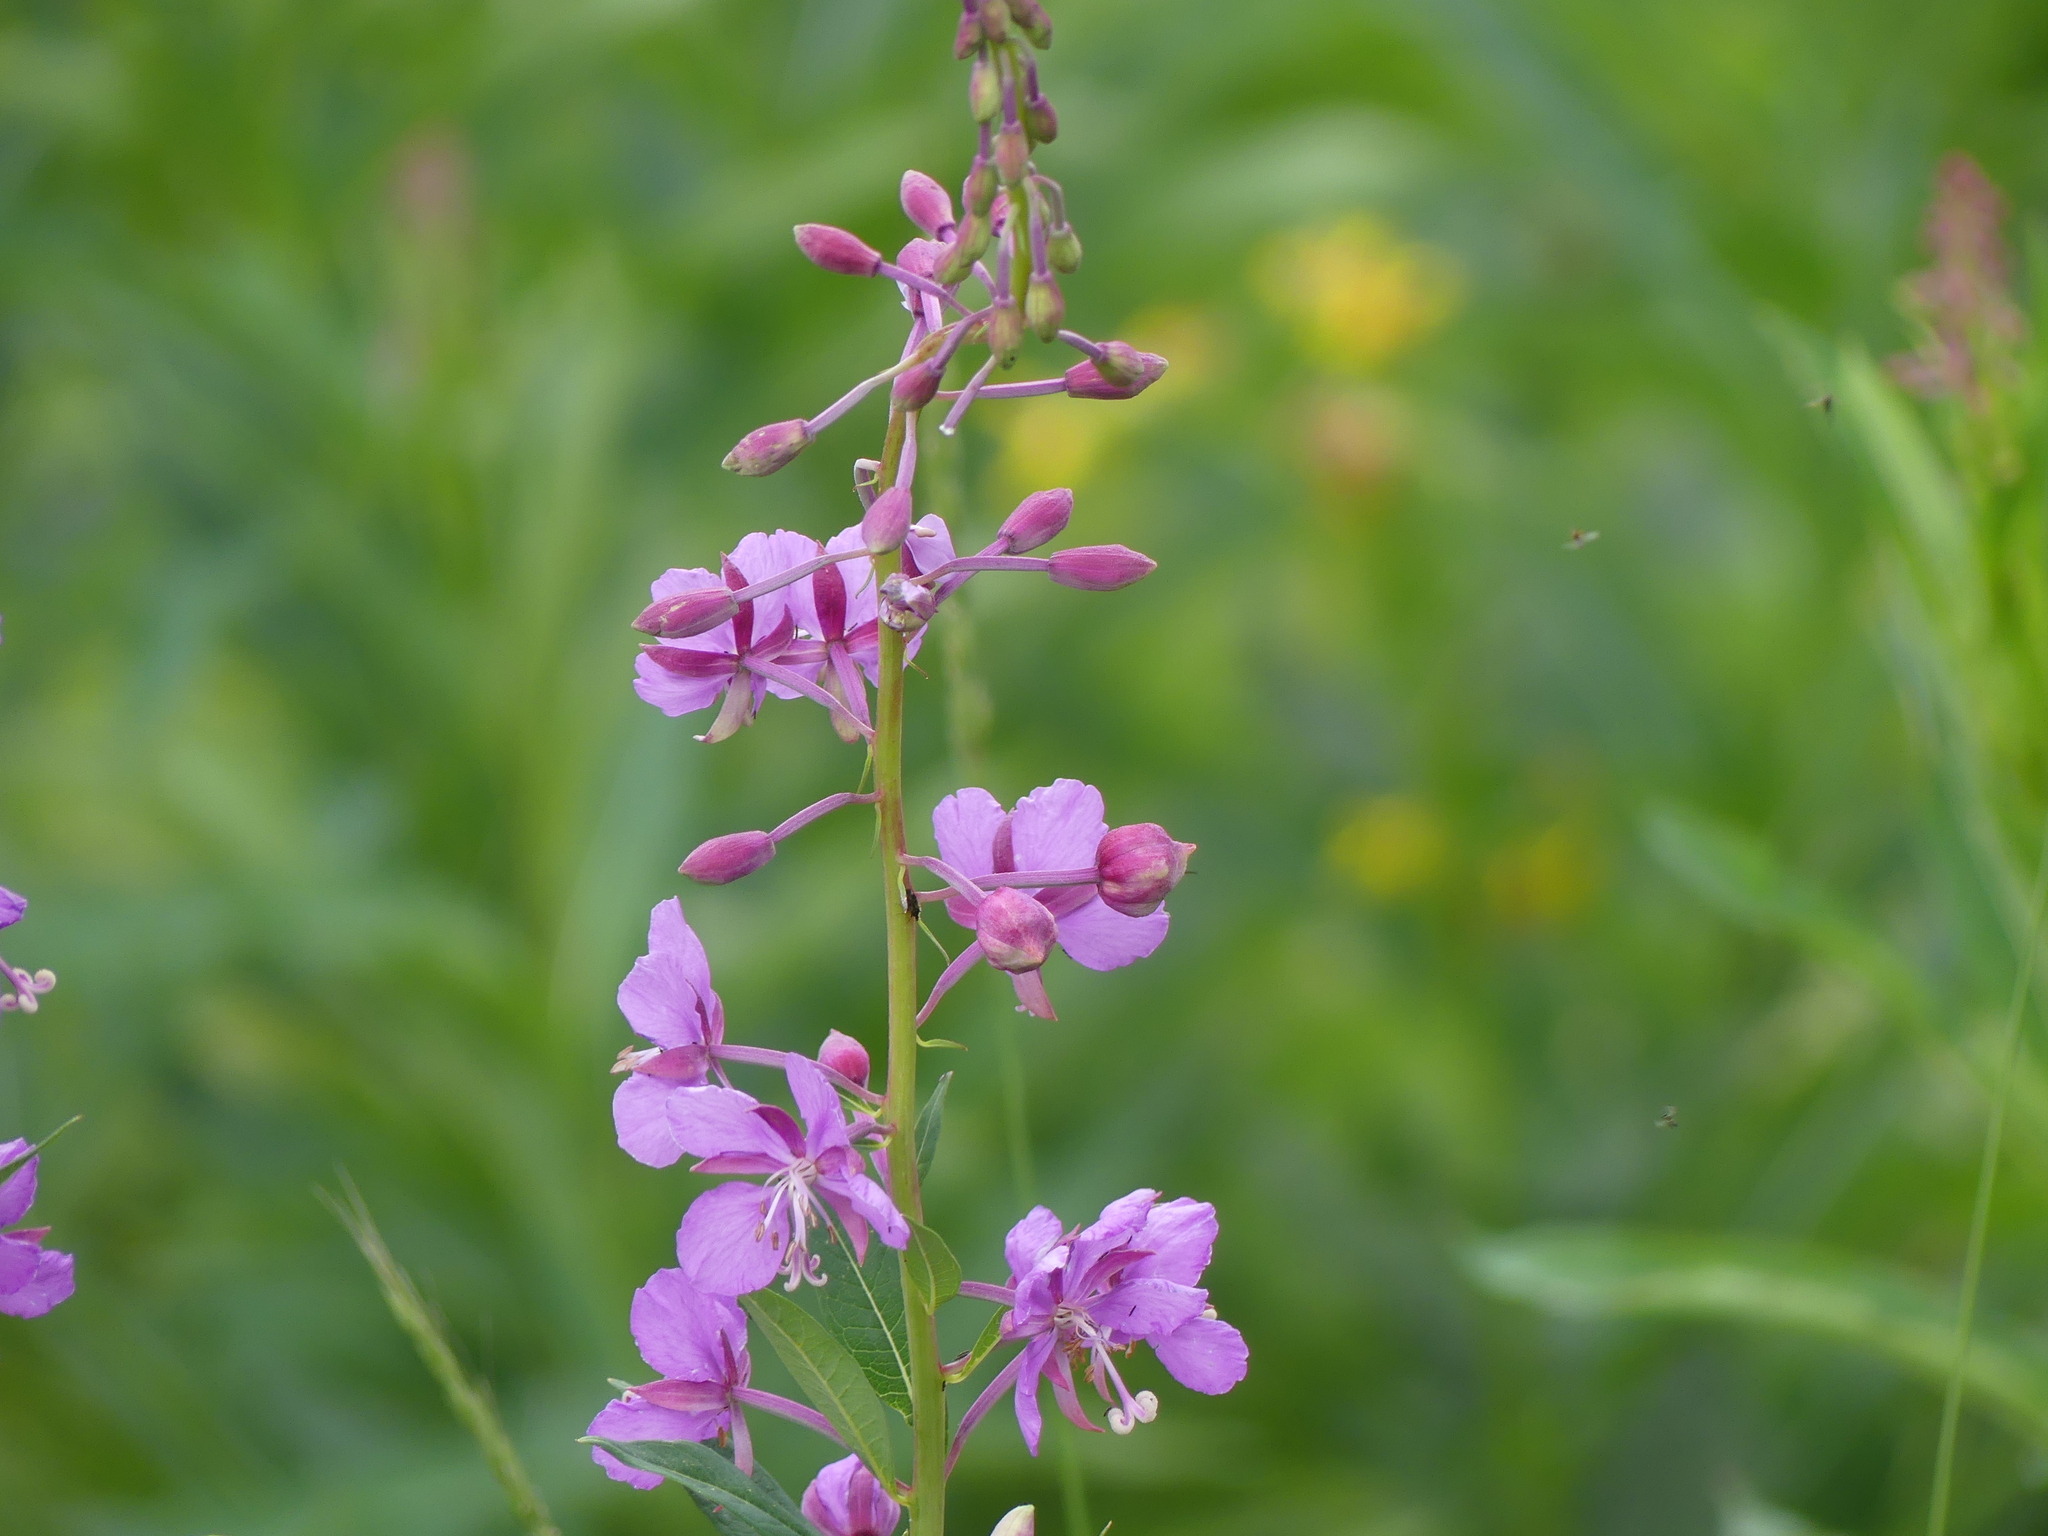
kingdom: Plantae
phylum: Tracheophyta
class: Magnoliopsida
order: Myrtales
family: Onagraceae
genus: Chamaenerion
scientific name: Chamaenerion angustifolium
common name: Fireweed
